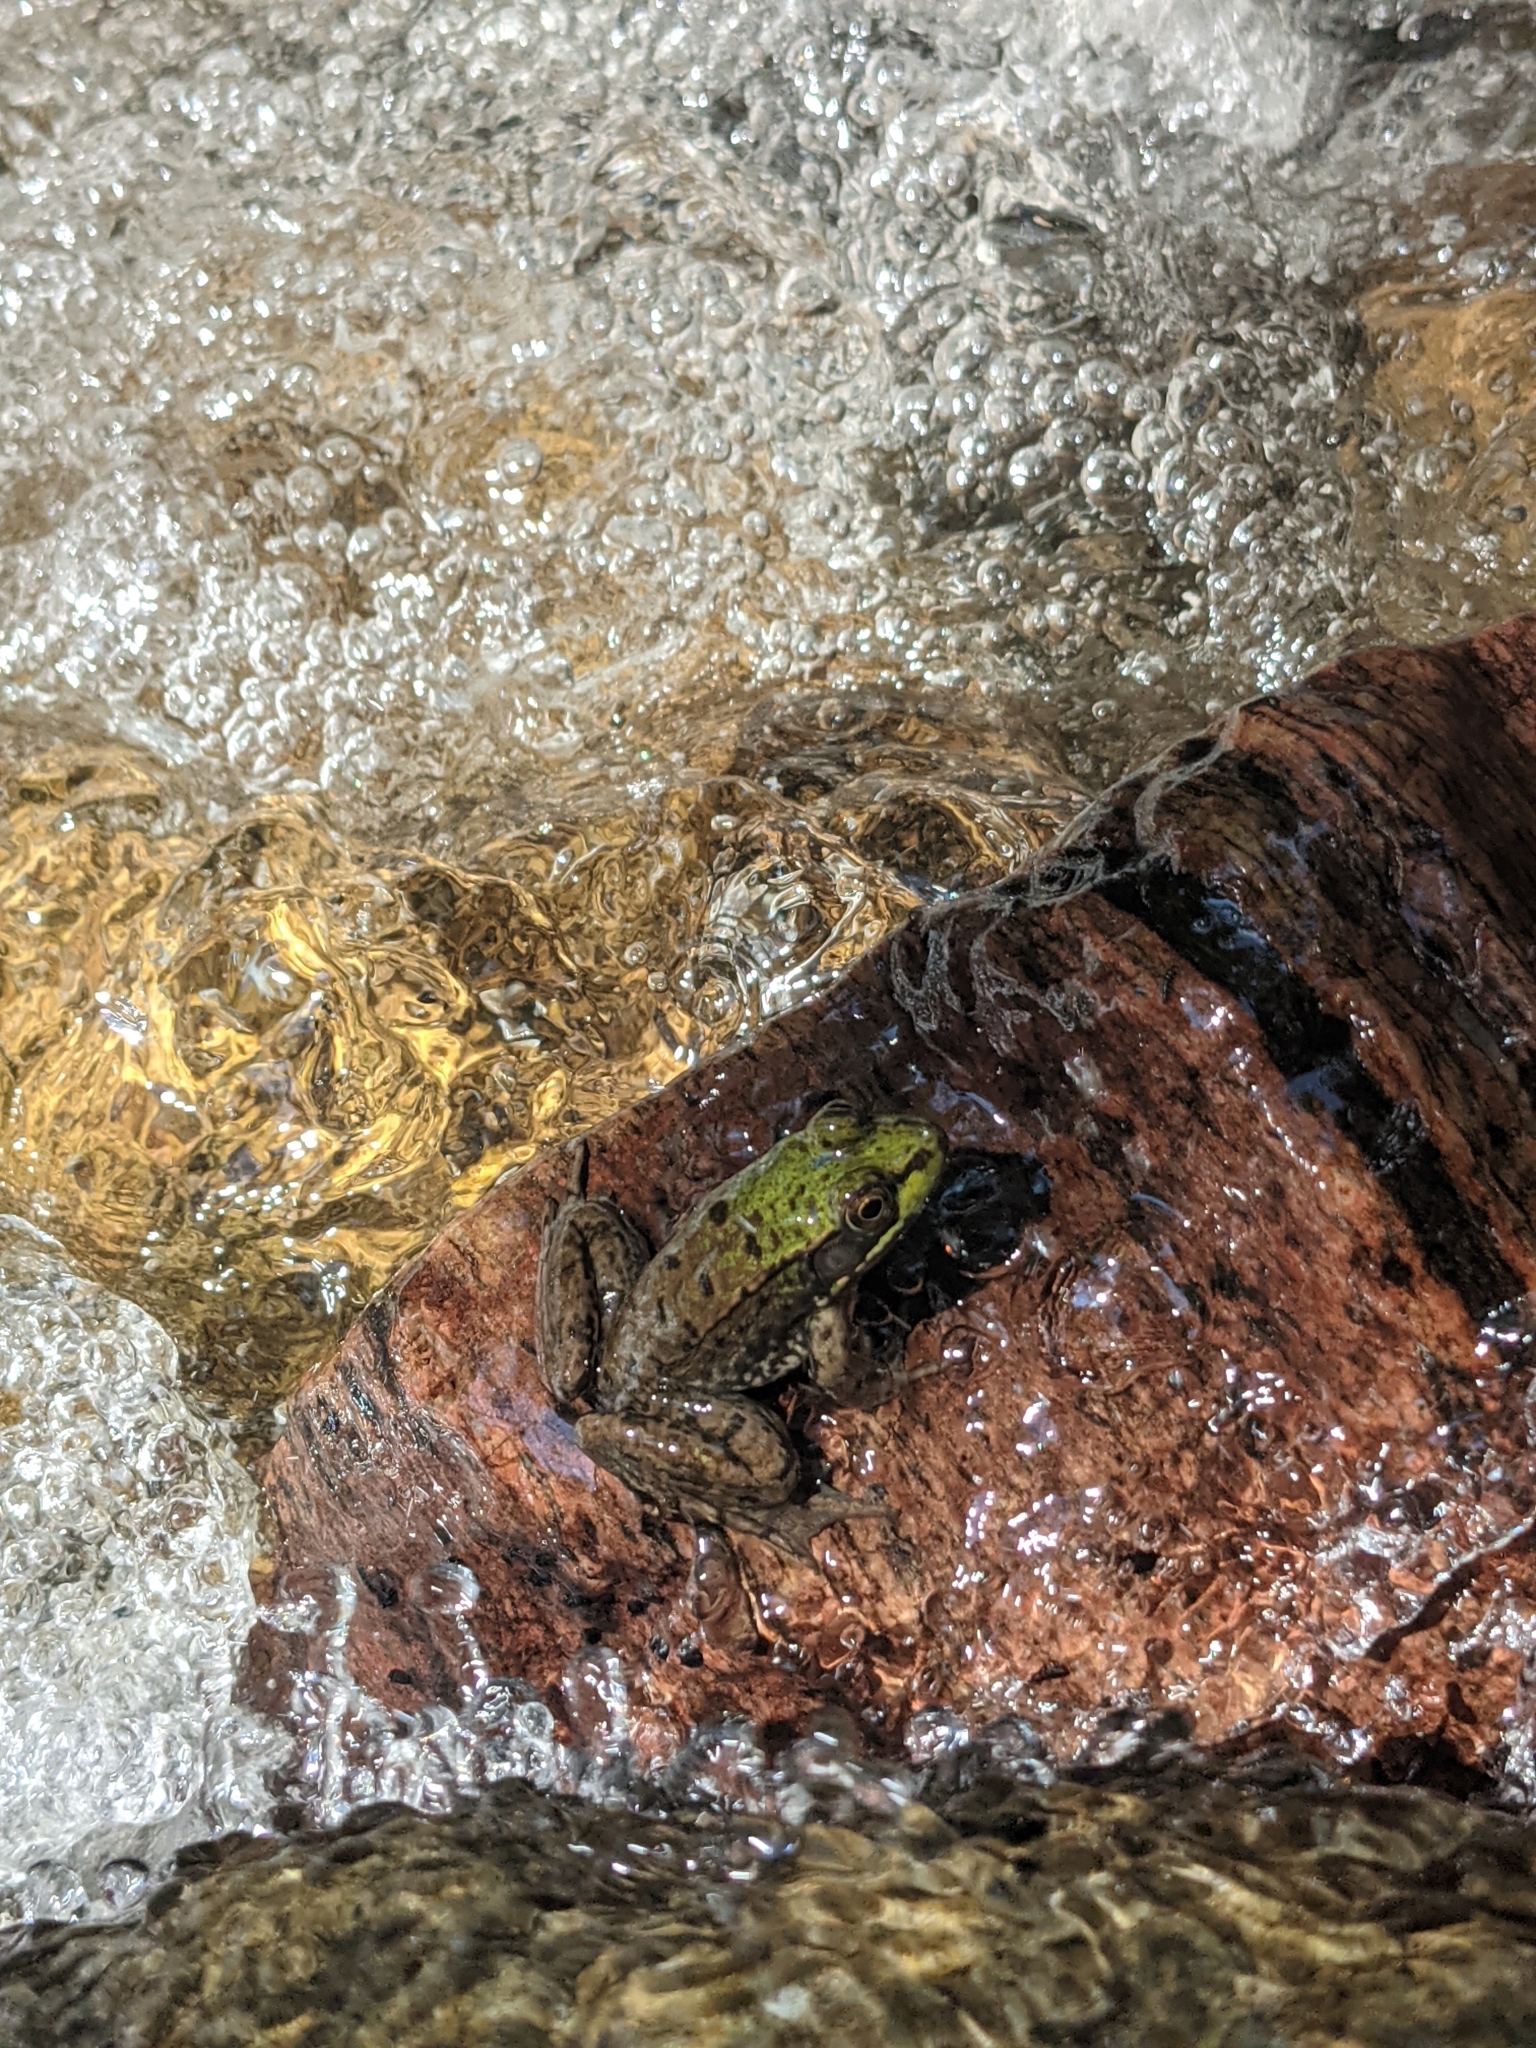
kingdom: Animalia
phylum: Chordata
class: Amphibia
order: Anura
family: Ranidae
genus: Lithobates
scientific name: Lithobates clamitans
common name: Green frog
